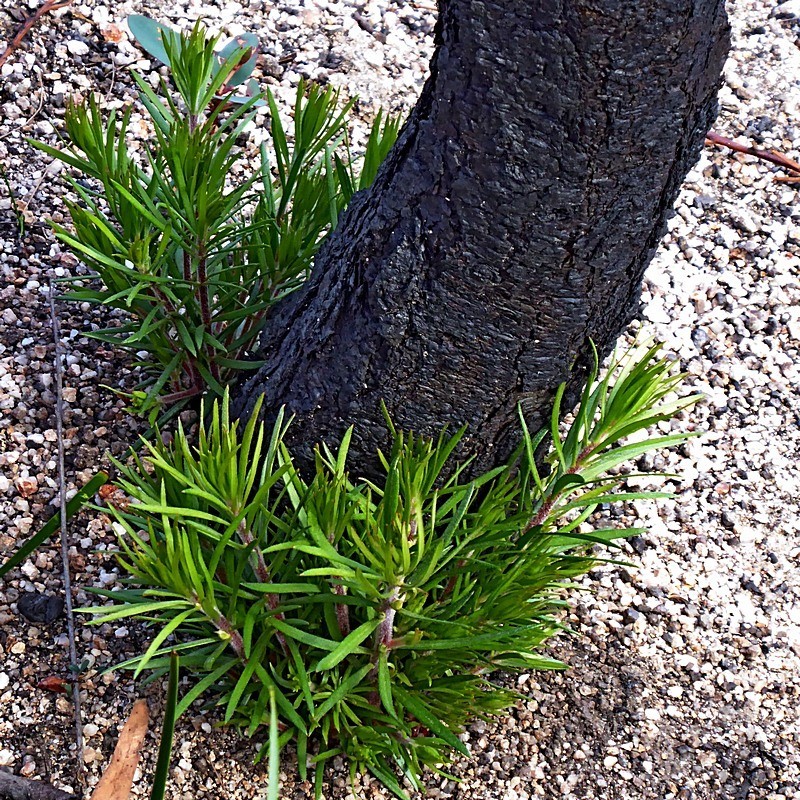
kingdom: Plantae
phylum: Tracheophyta
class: Magnoliopsida
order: Proteales
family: Proteaceae
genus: Persoonia
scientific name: Persoonia linearis
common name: Narrow-leaf geebung
